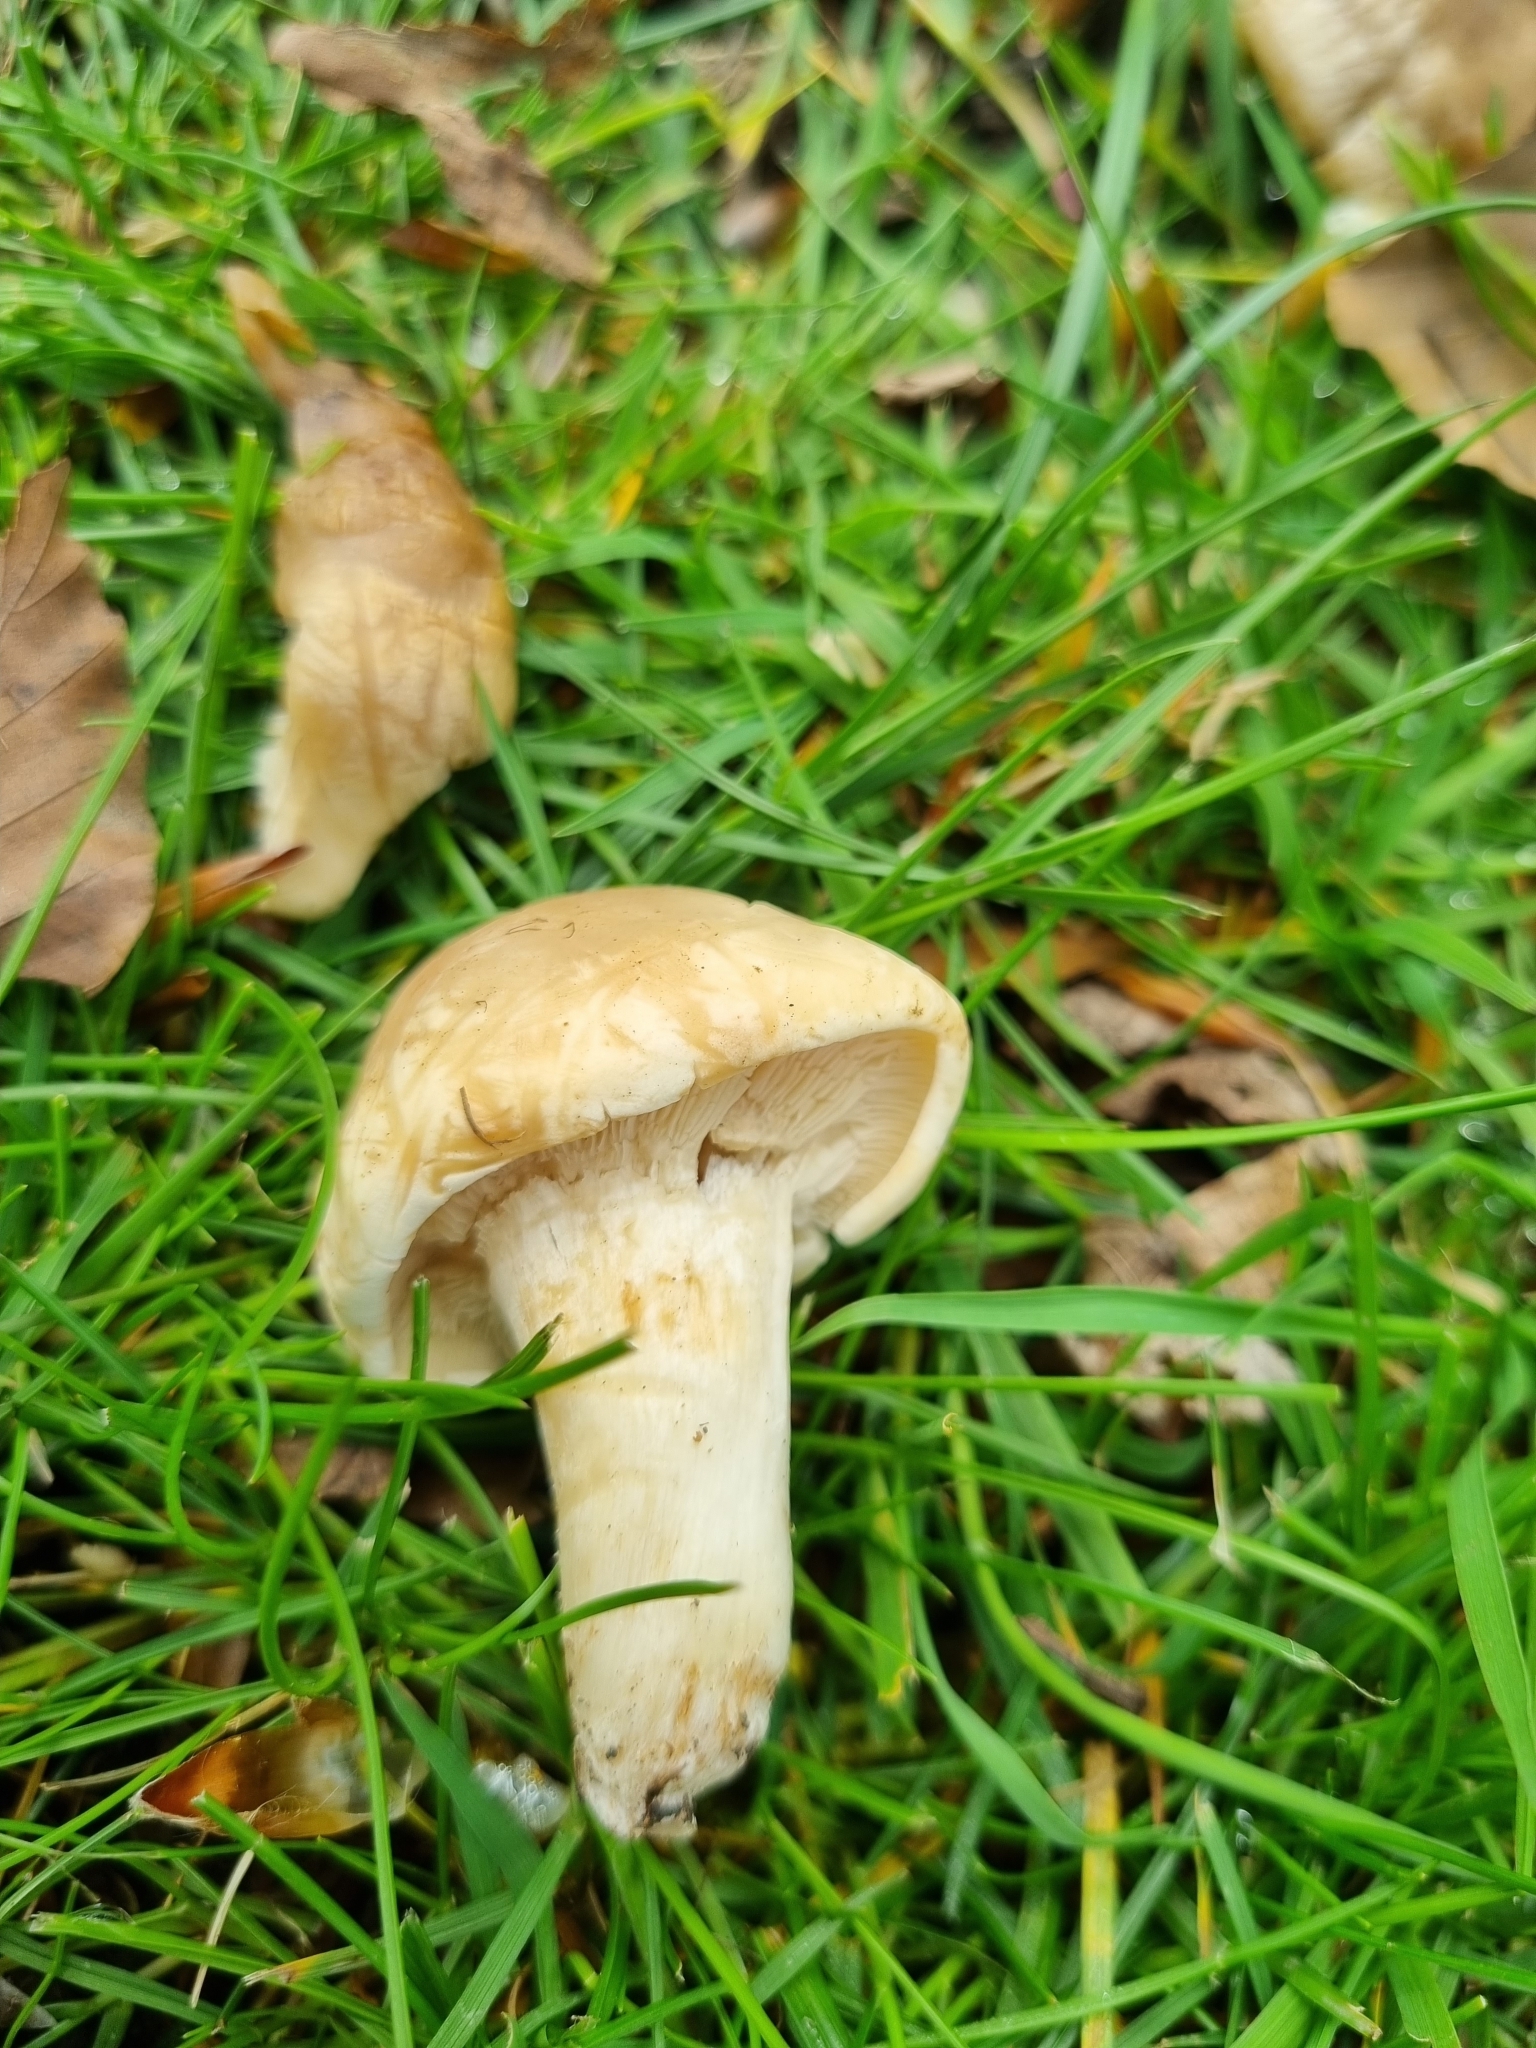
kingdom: Fungi
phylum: Basidiomycota
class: Agaricomycetes
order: Agaricales
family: Lyophyllaceae
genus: Calocybe
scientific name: Calocybe gambosa
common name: St. george's mushroom
